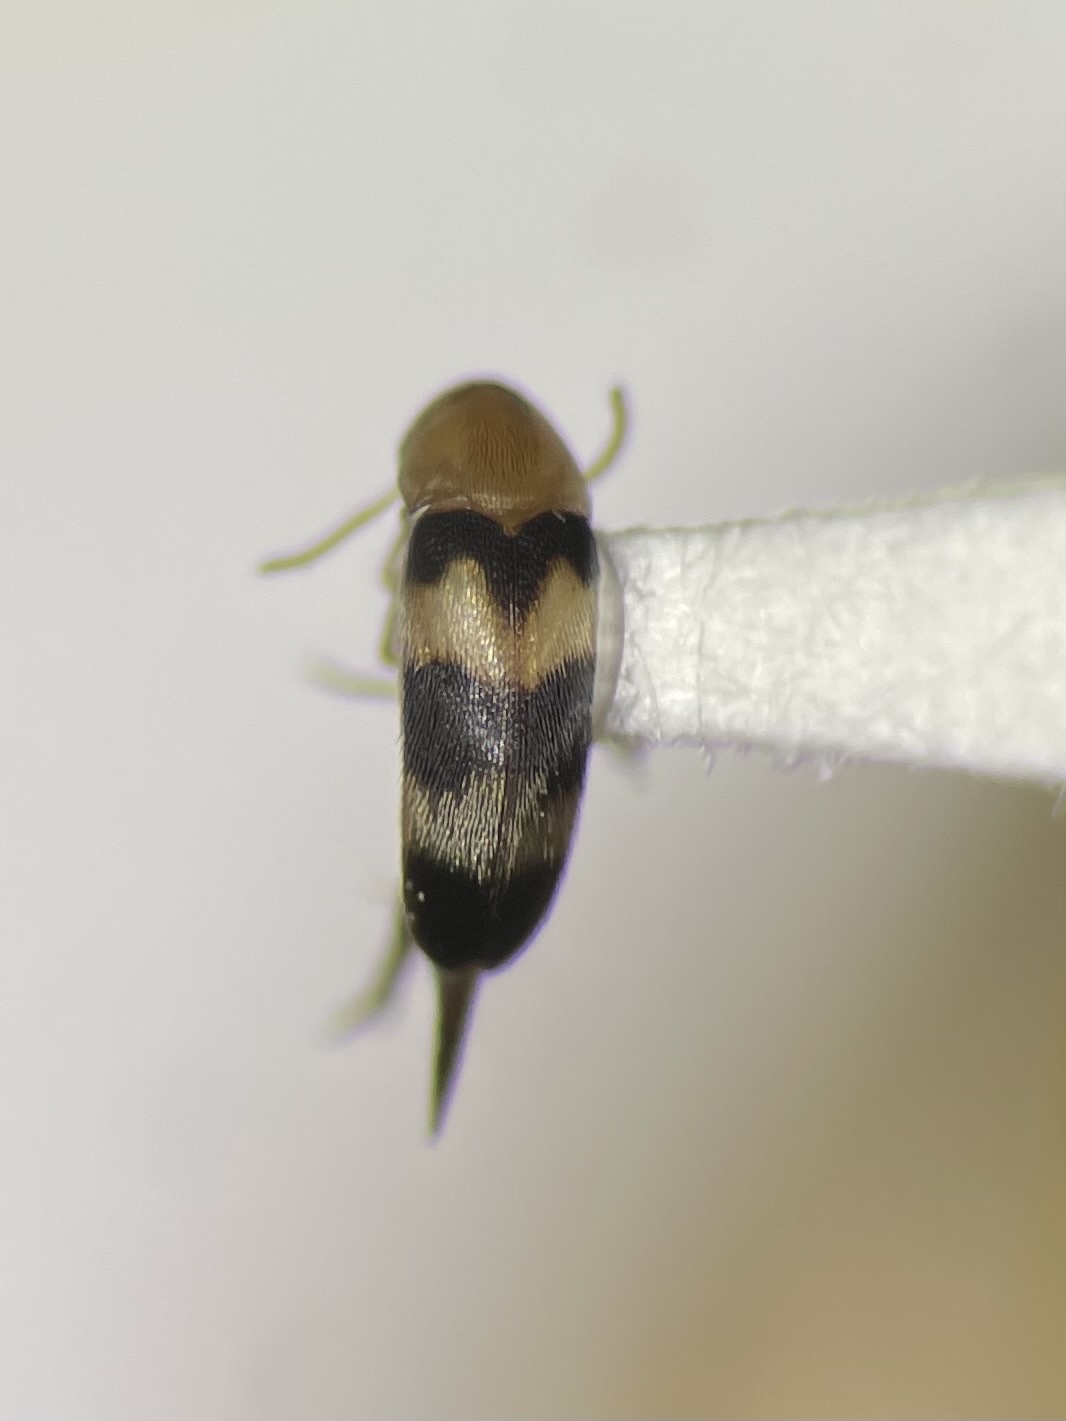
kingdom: Animalia
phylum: Arthropoda
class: Insecta
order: Coleoptera
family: Mordellidae
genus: Mordellistena
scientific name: Mordellistena trifasciata
